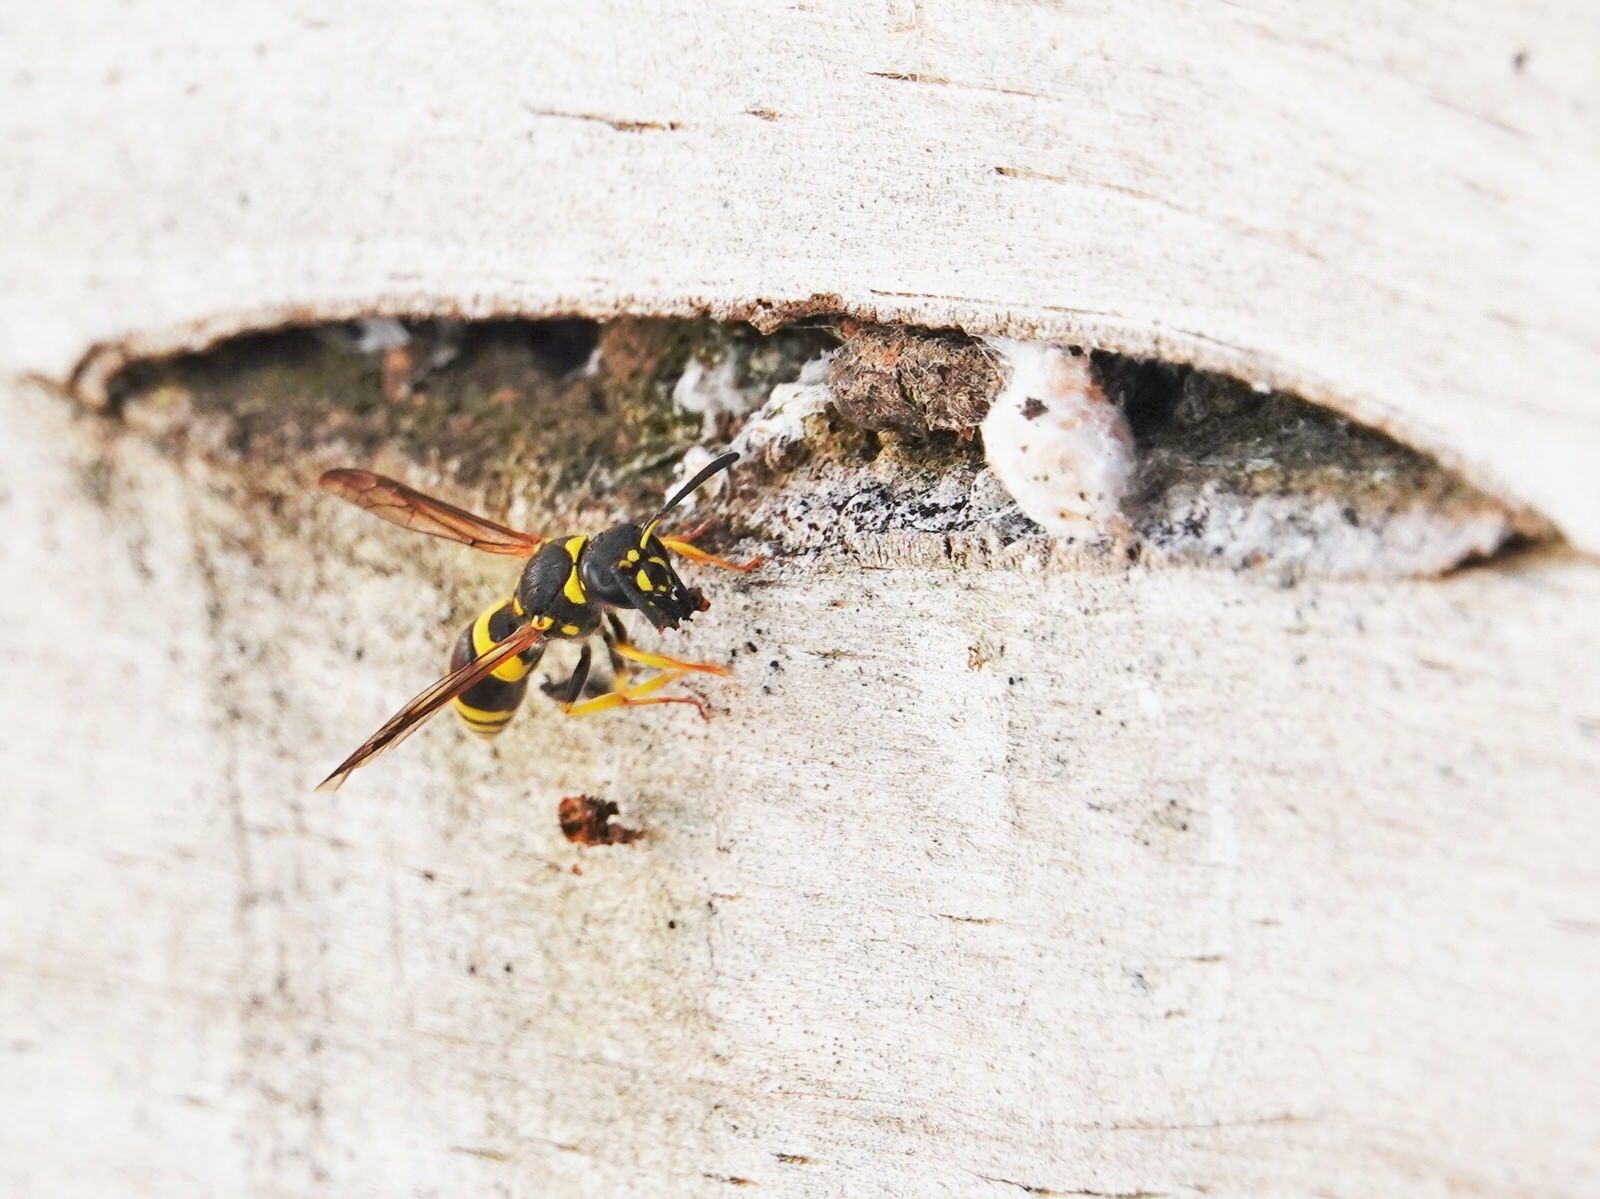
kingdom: Animalia
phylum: Arthropoda
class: Insecta
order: Hymenoptera
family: Vespidae
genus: Ancistrocerus
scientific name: Ancistrocerus gazella
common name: European tube wasp
